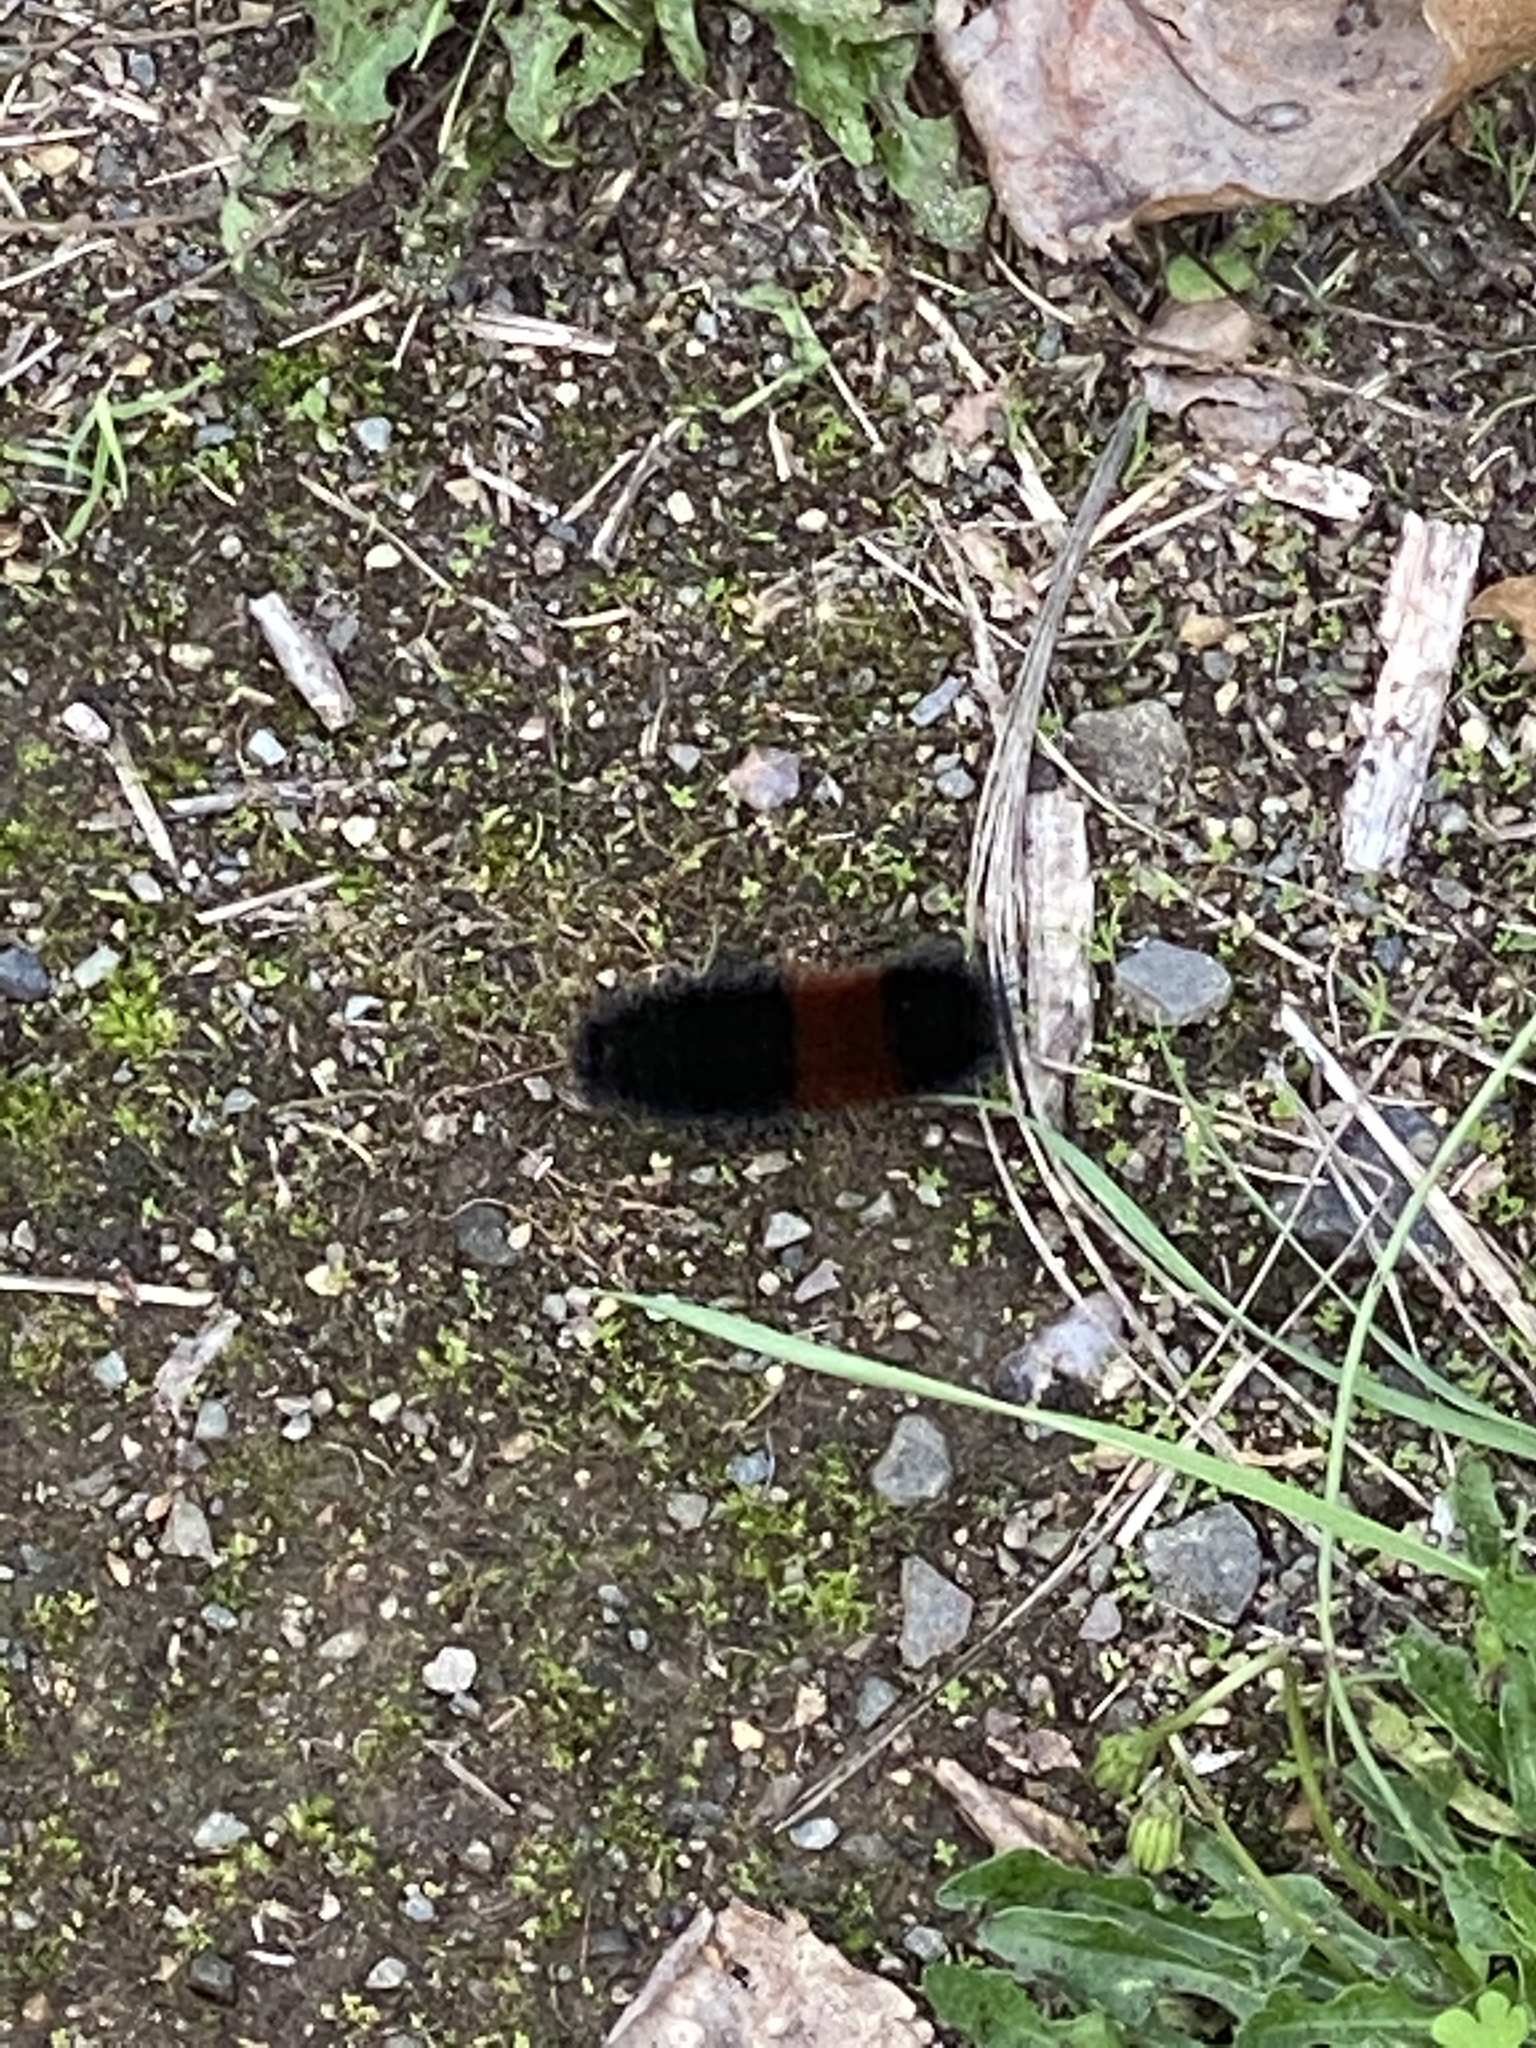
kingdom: Animalia
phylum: Arthropoda
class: Insecta
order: Lepidoptera
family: Erebidae
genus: Pyrrharctia
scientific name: Pyrrharctia isabella
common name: Isabella tiger moth
